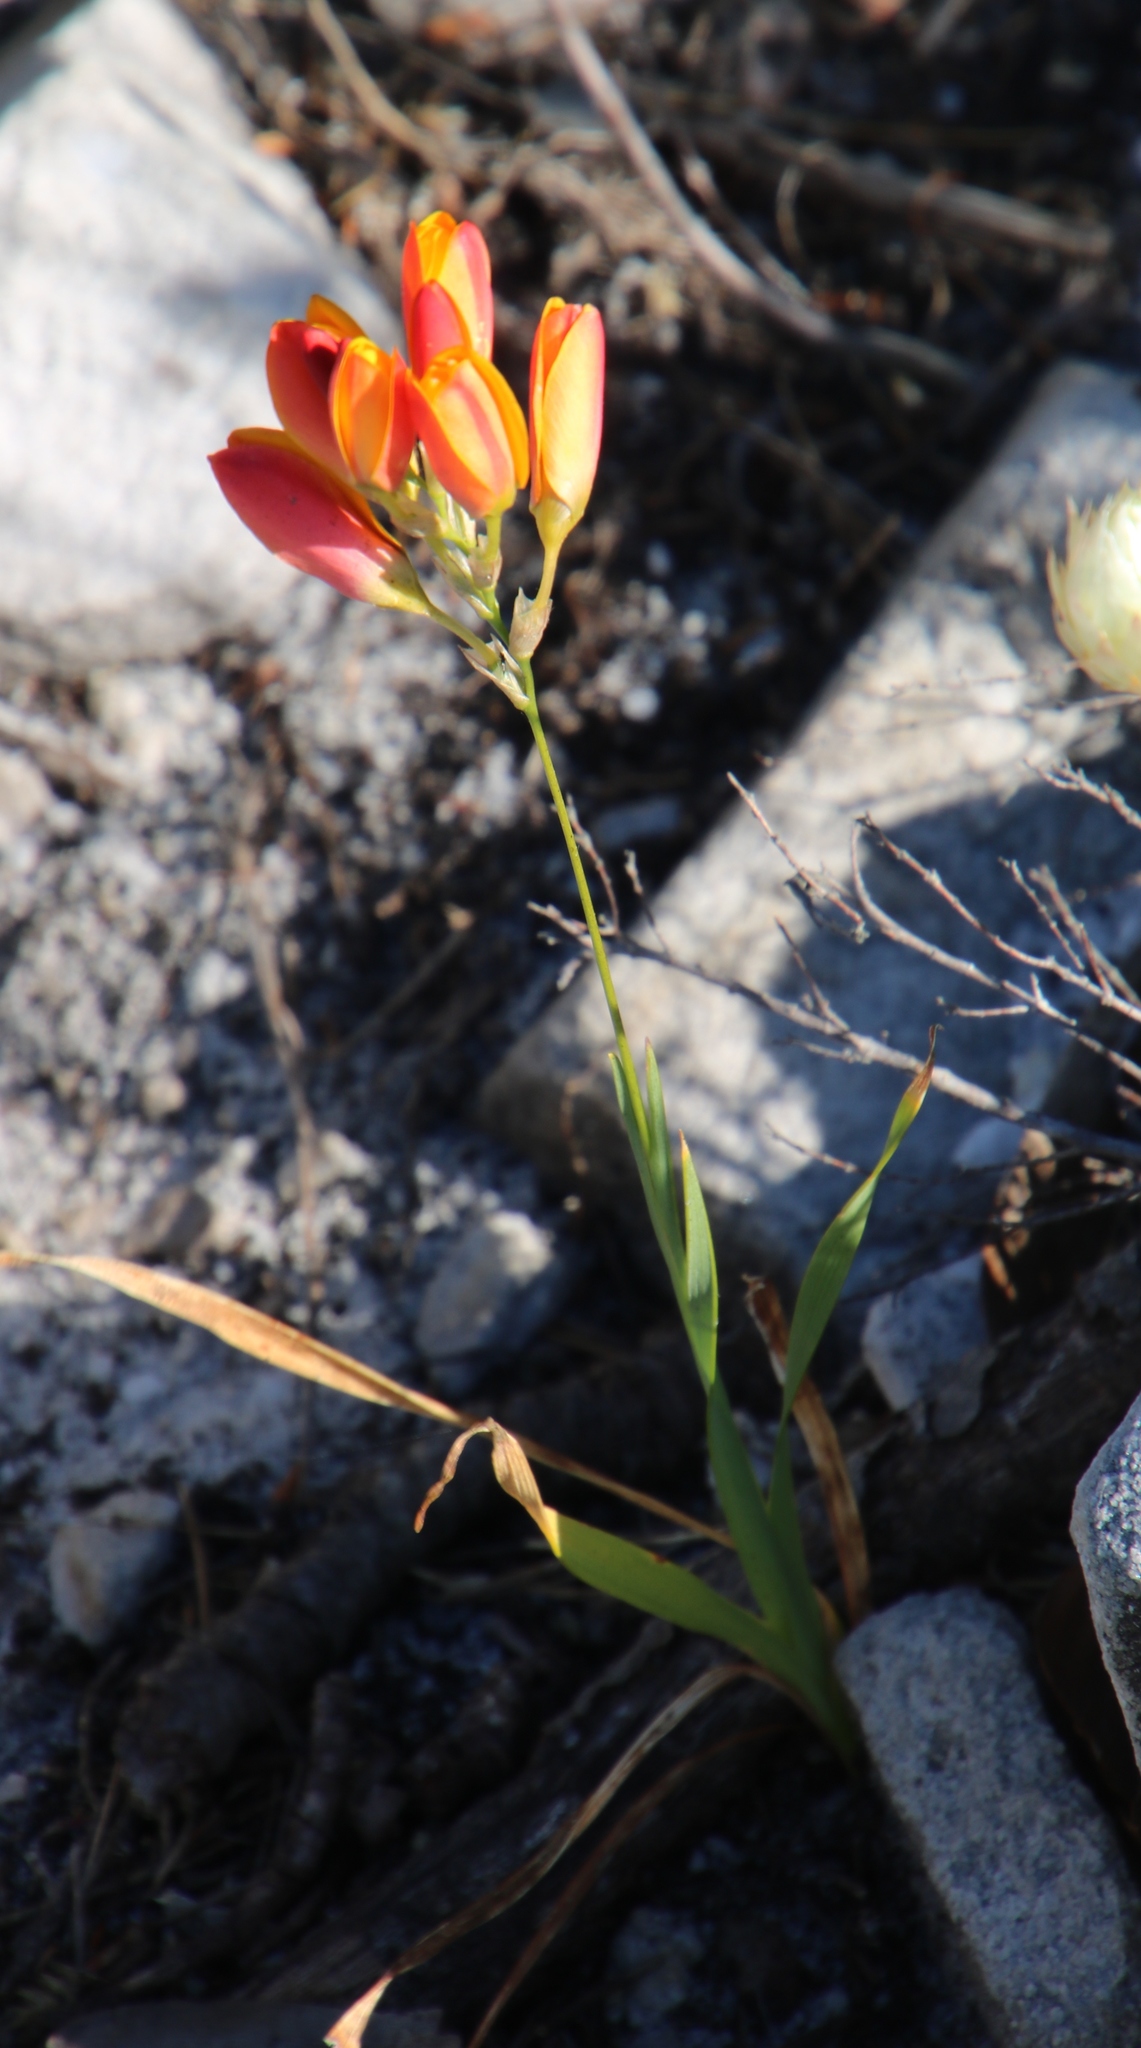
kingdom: Plantae
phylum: Tracheophyta
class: Liliopsida
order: Asparagales
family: Iridaceae
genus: Ixia
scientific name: Ixia dubia
